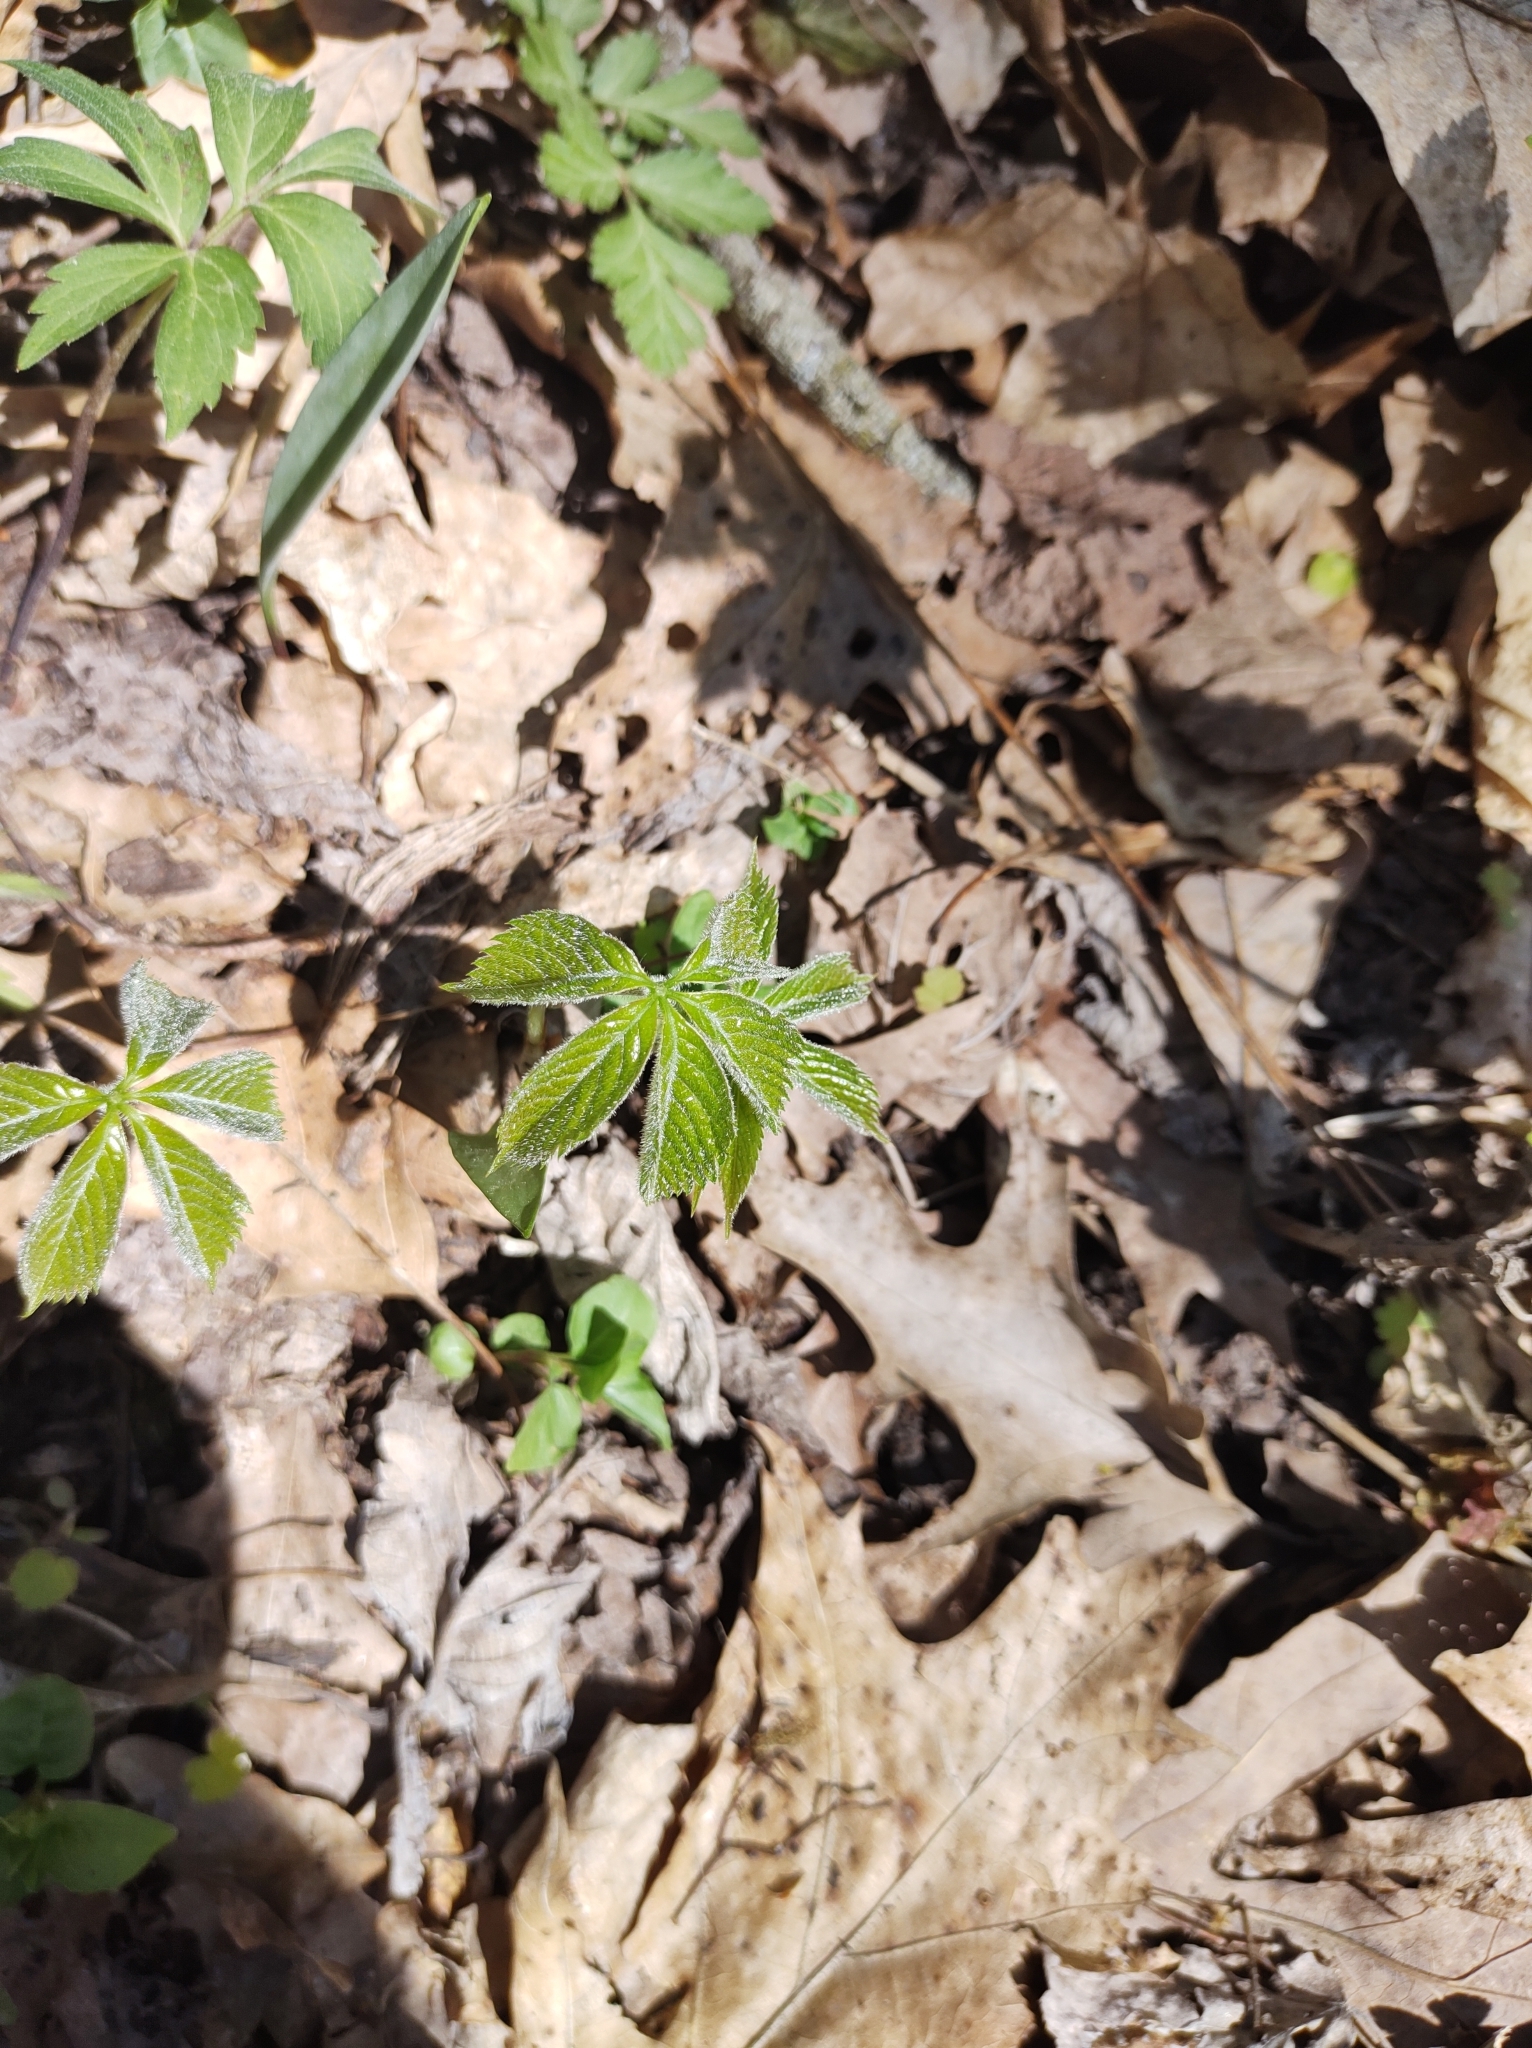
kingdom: Plantae
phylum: Tracheophyta
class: Magnoliopsida
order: Vitales
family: Vitaceae
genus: Parthenocissus
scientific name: Parthenocissus quinquefolia
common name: Virginia-creeper
